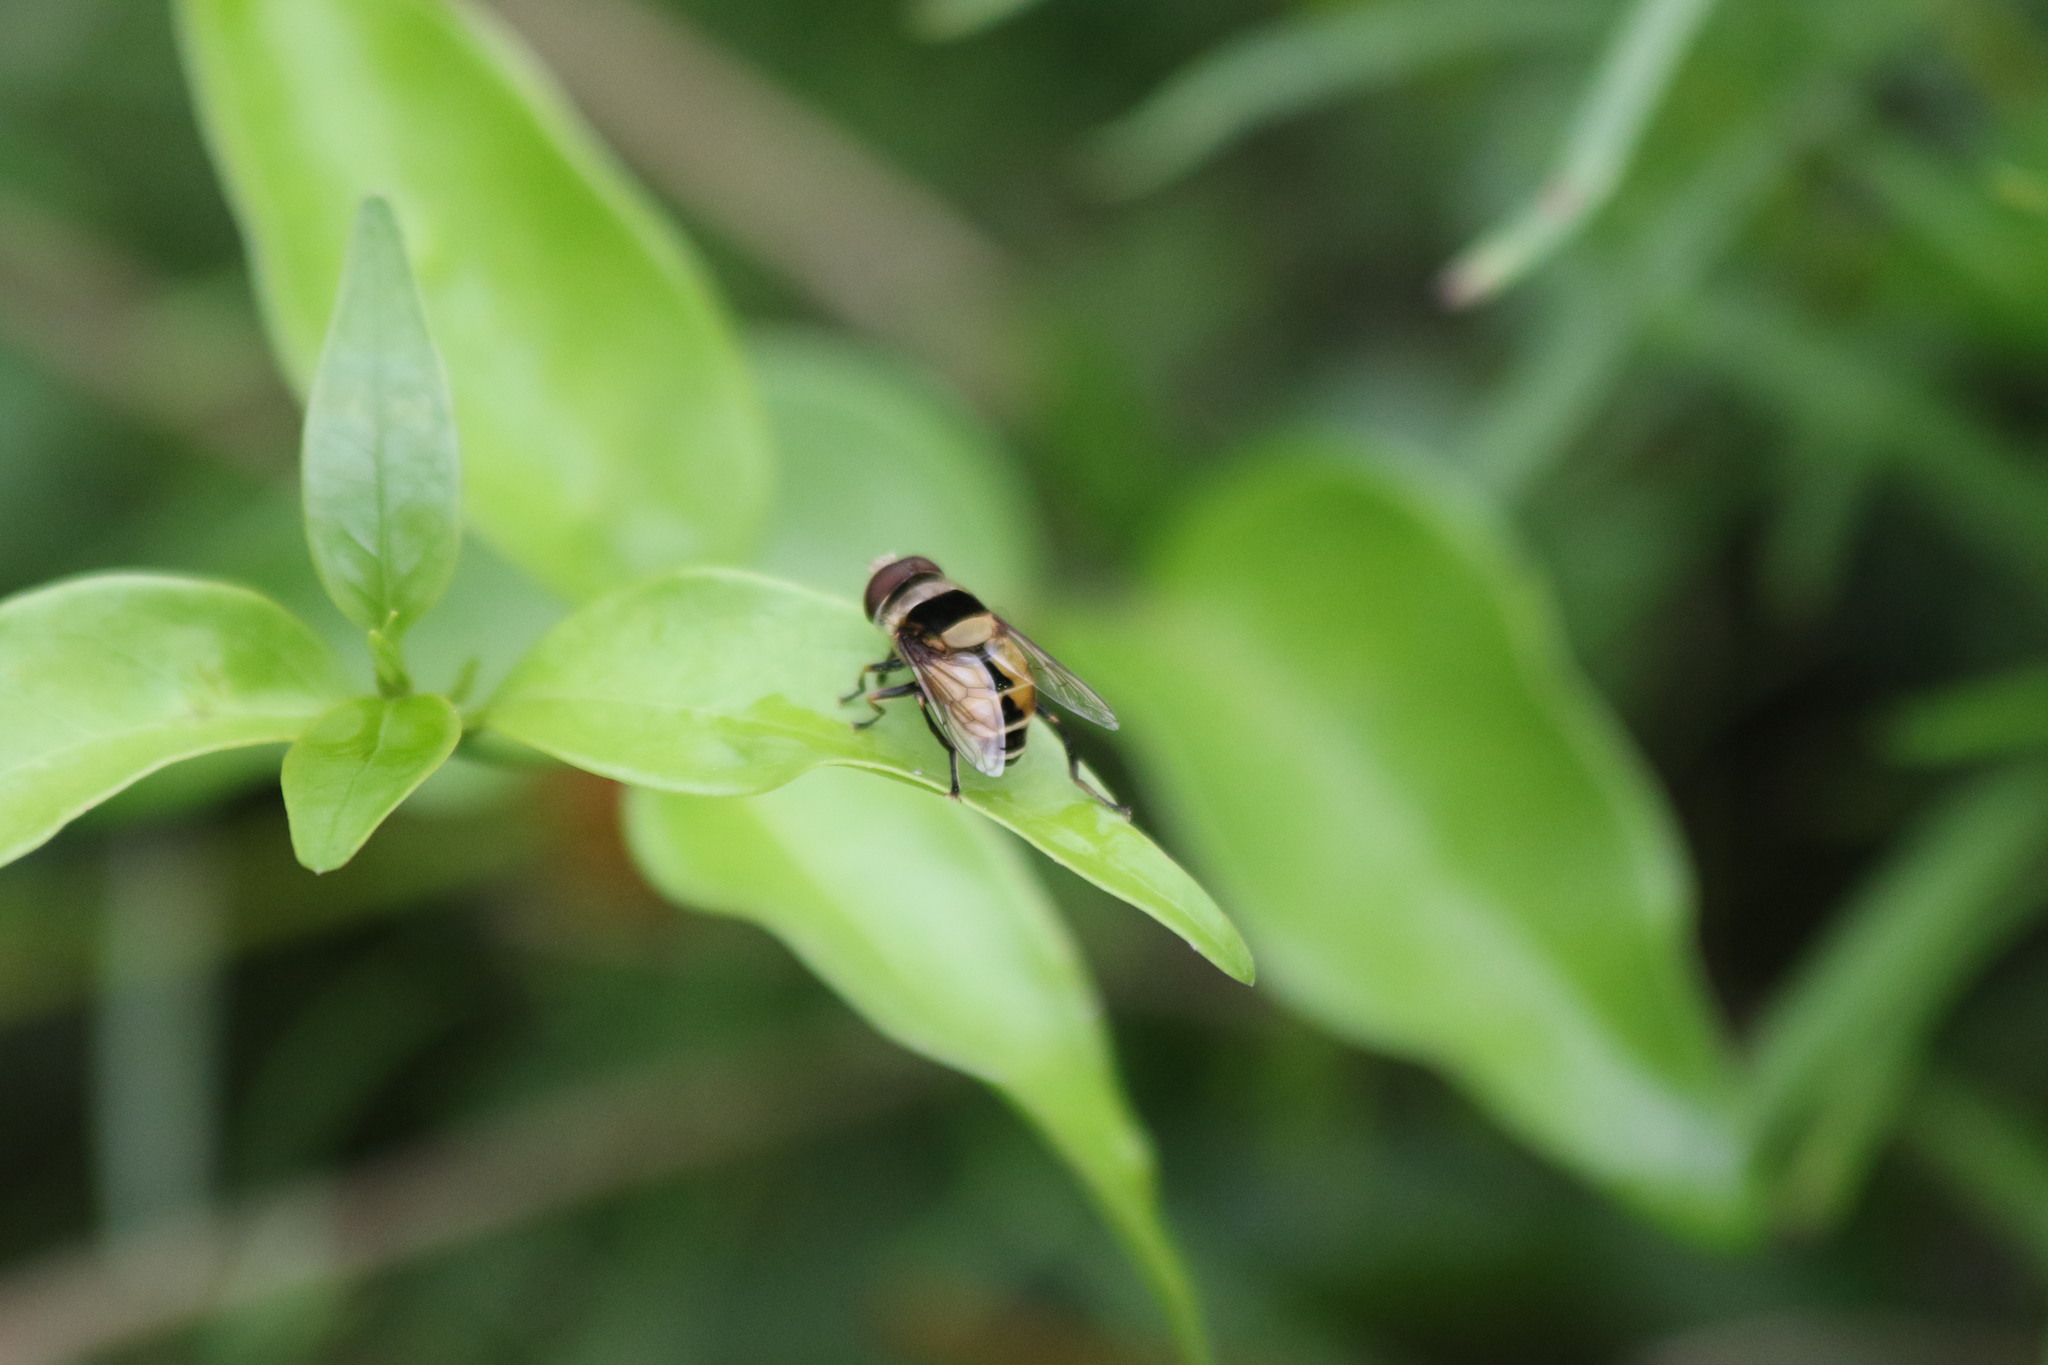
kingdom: Animalia
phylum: Arthropoda
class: Insecta
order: Diptera
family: Syrphidae
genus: Palpada
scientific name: Palpada pusilla
